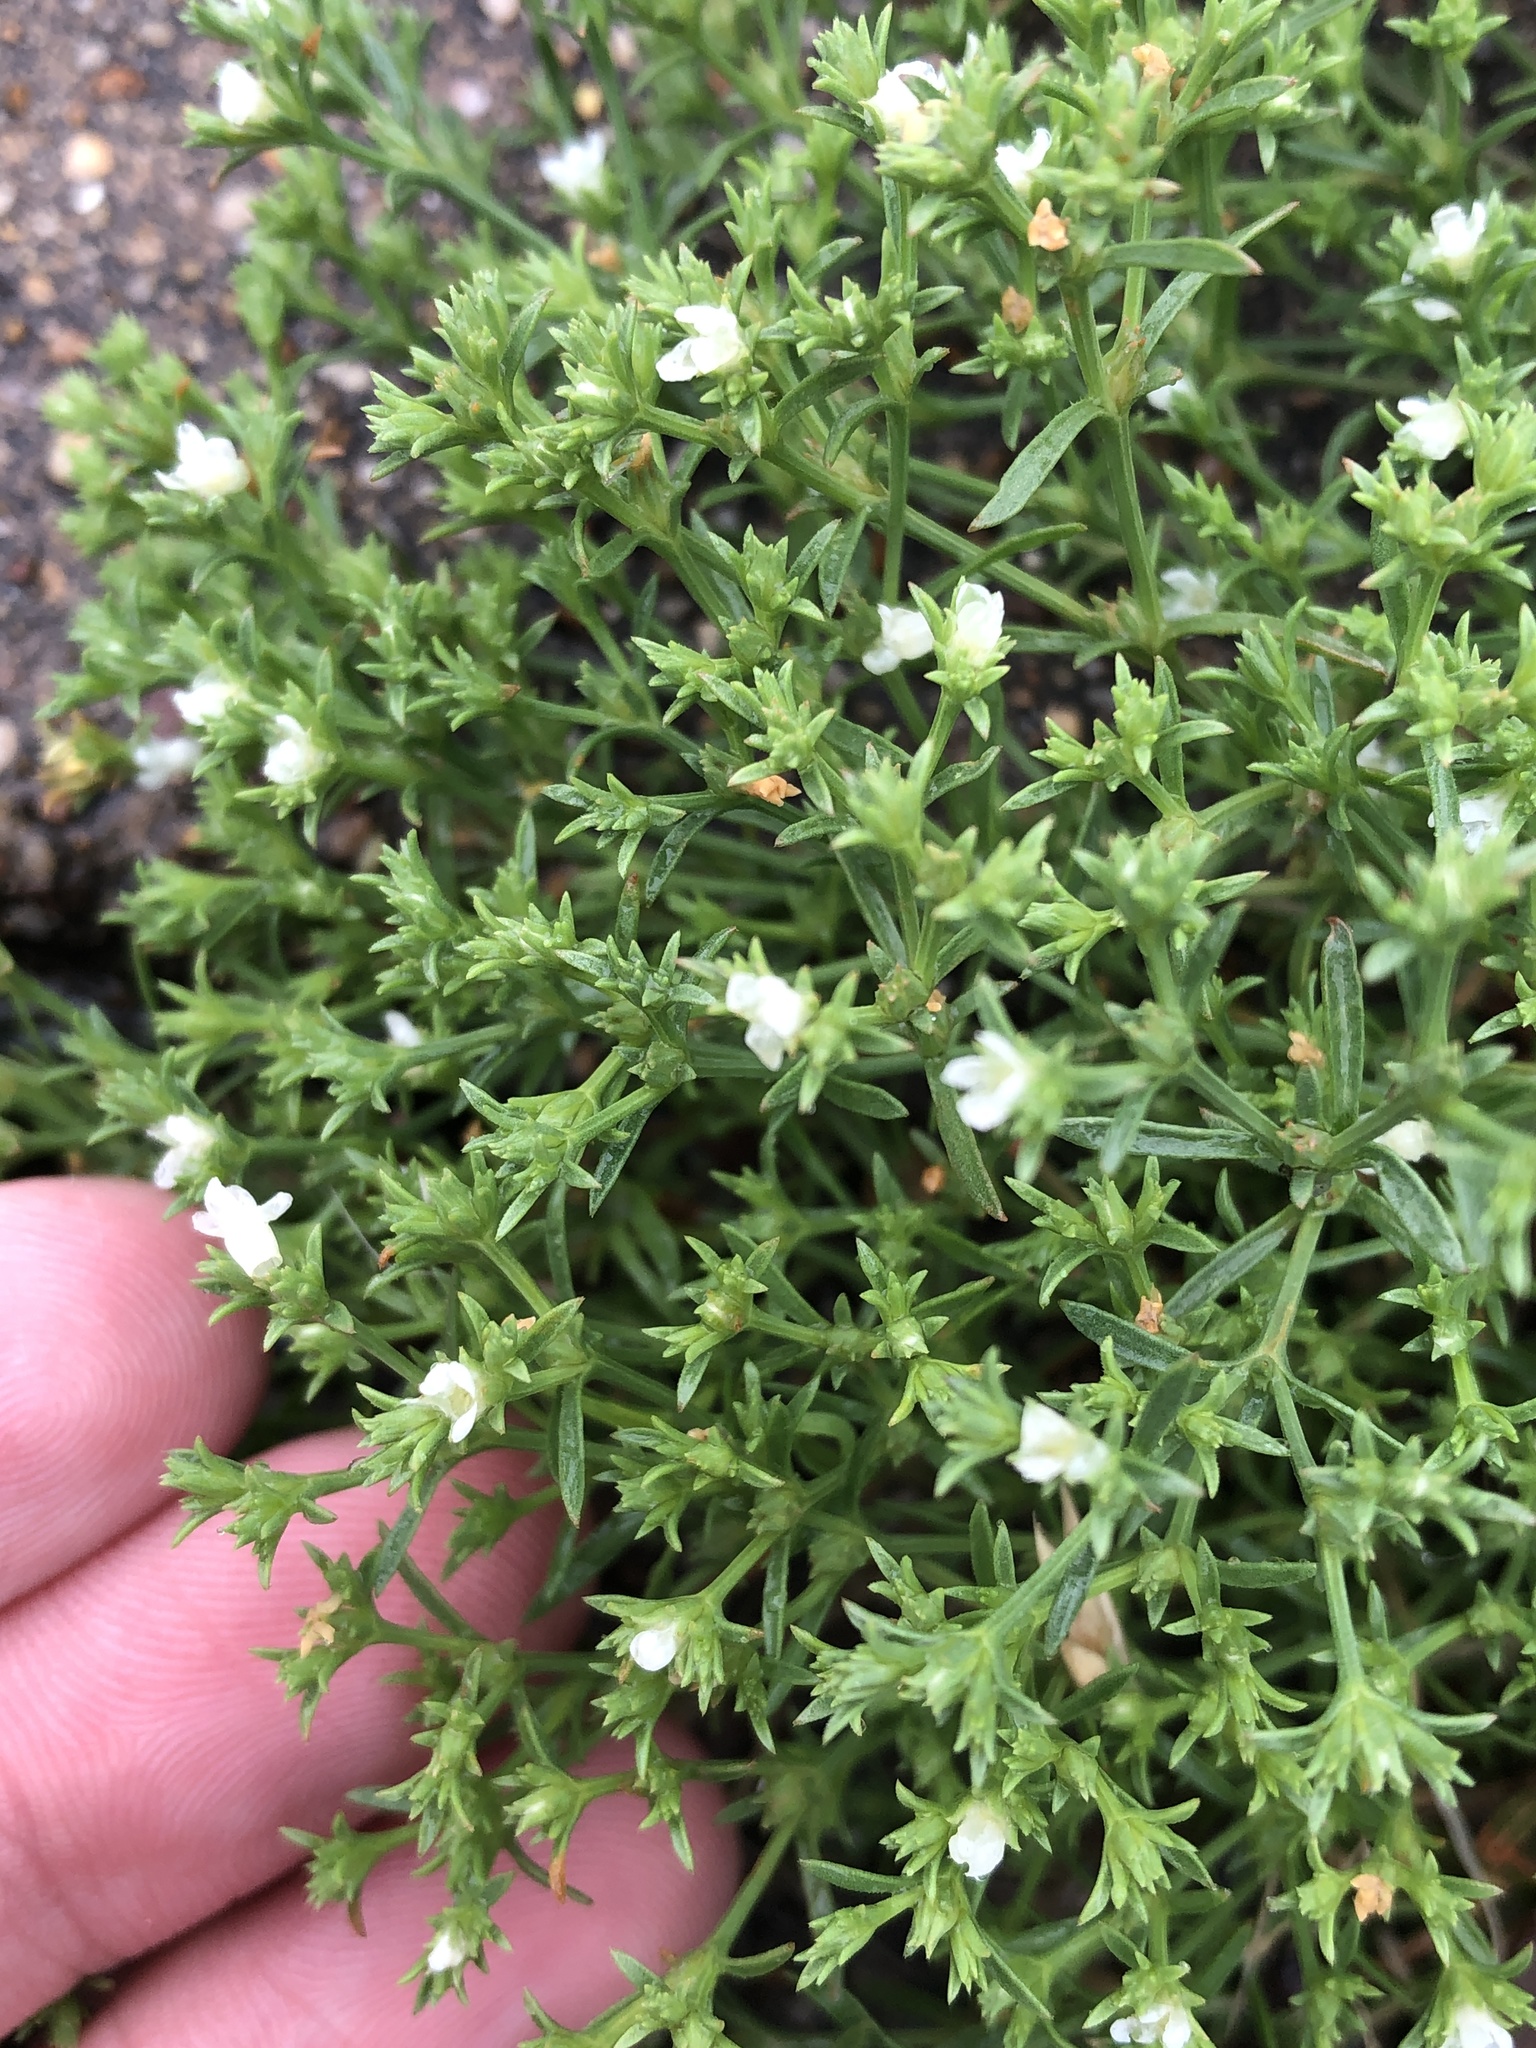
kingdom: Plantae
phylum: Tracheophyta
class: Magnoliopsida
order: Lamiales
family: Tetrachondraceae
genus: Polypremum
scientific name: Polypremum procumbens
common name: Juniper-leaf
